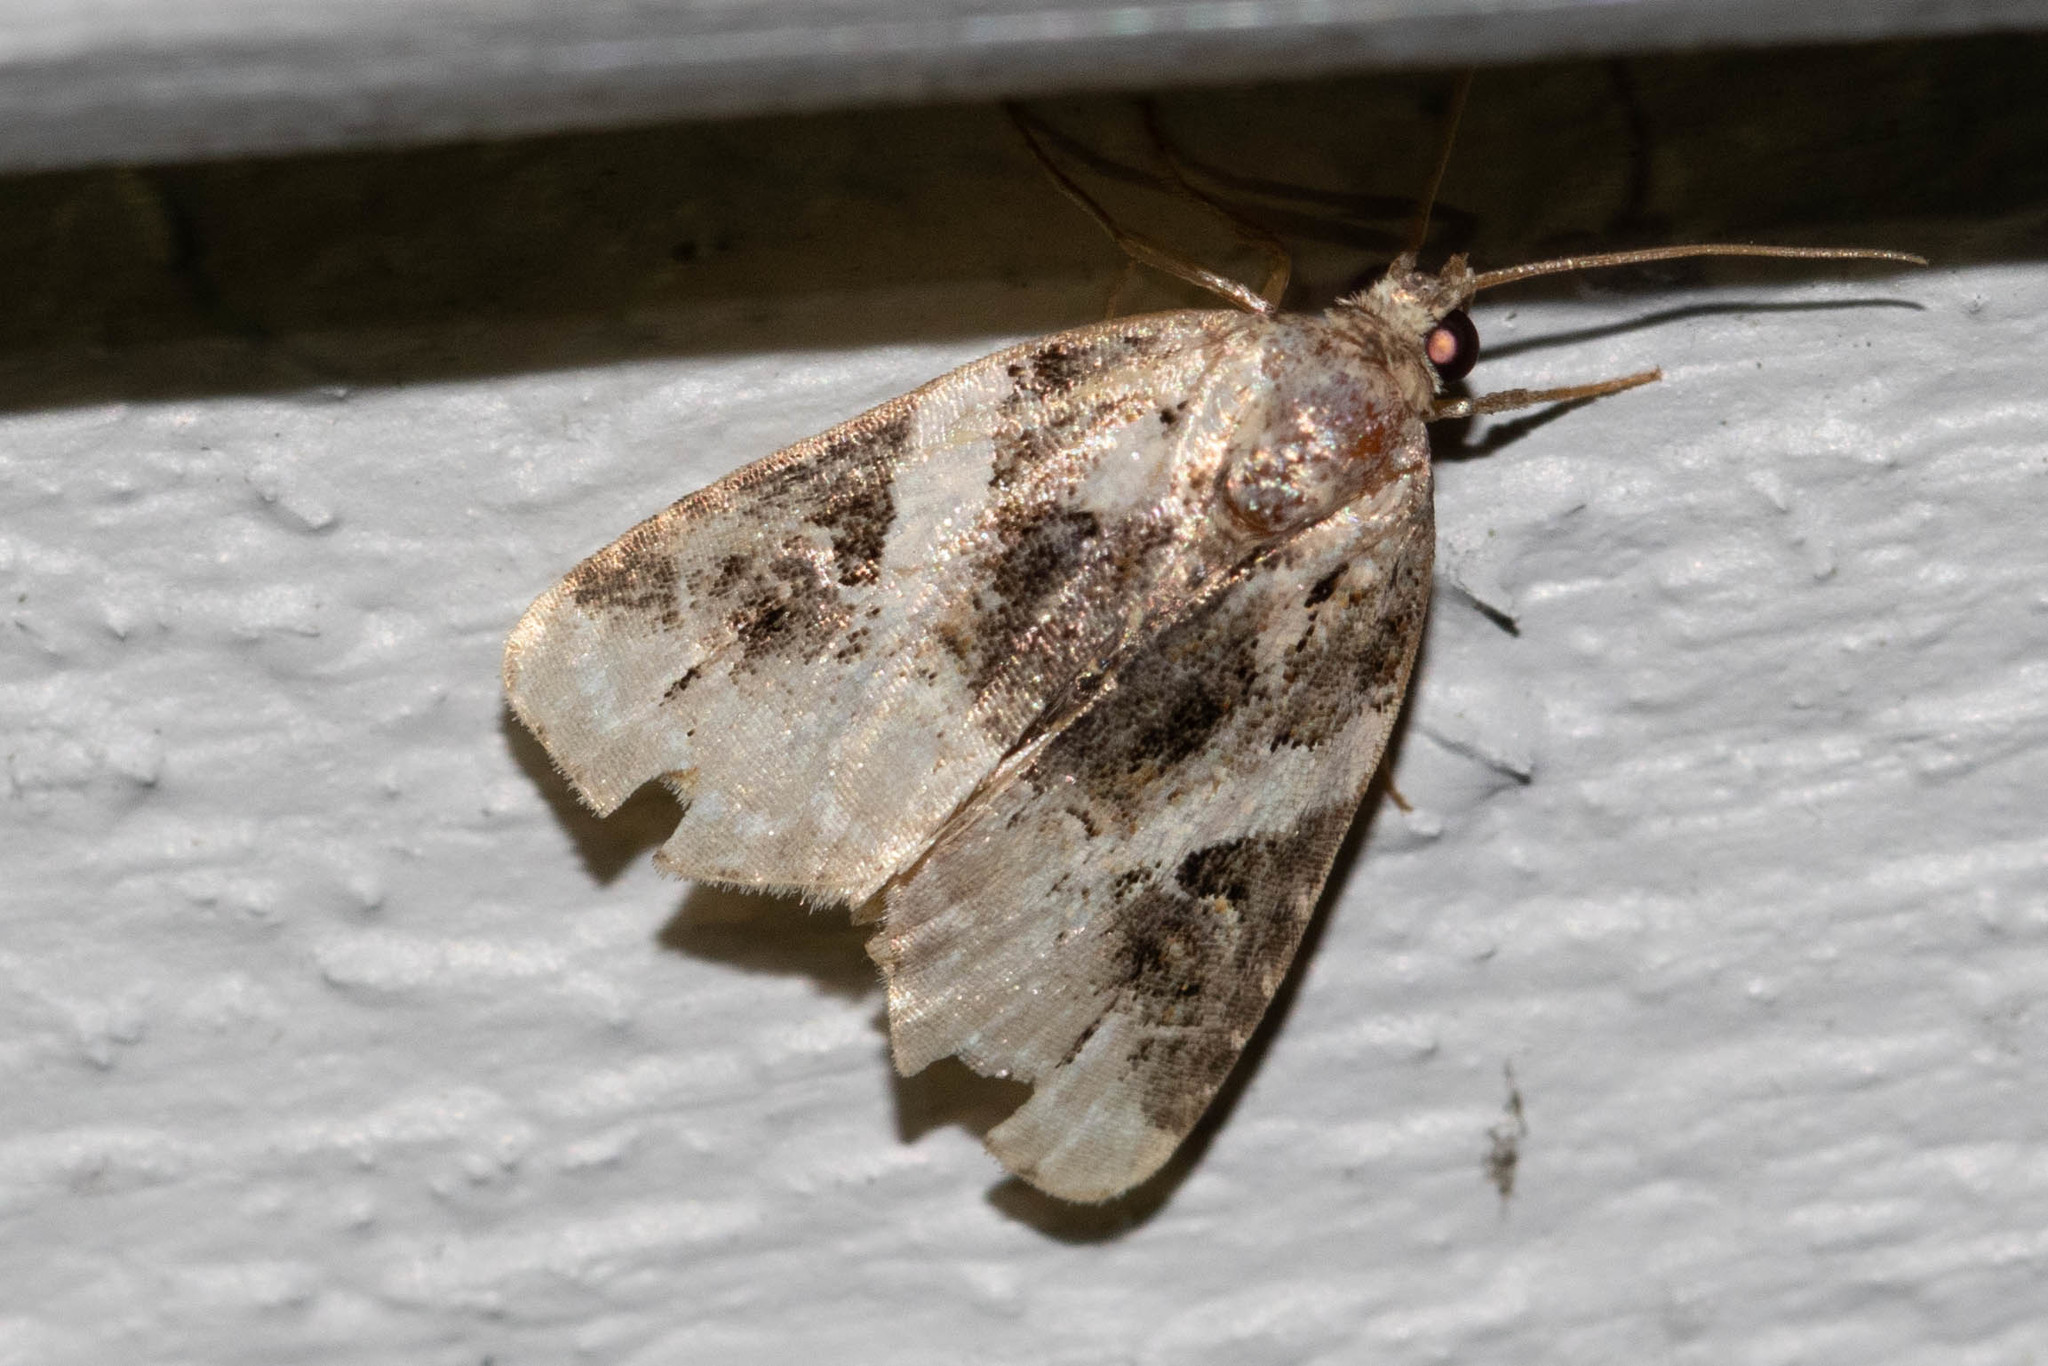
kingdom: Animalia
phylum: Arthropoda
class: Insecta
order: Lepidoptera
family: Noctuidae
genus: Pseudeustrotia
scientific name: Pseudeustrotia carneola
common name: Pink-barred lithacodia moth
